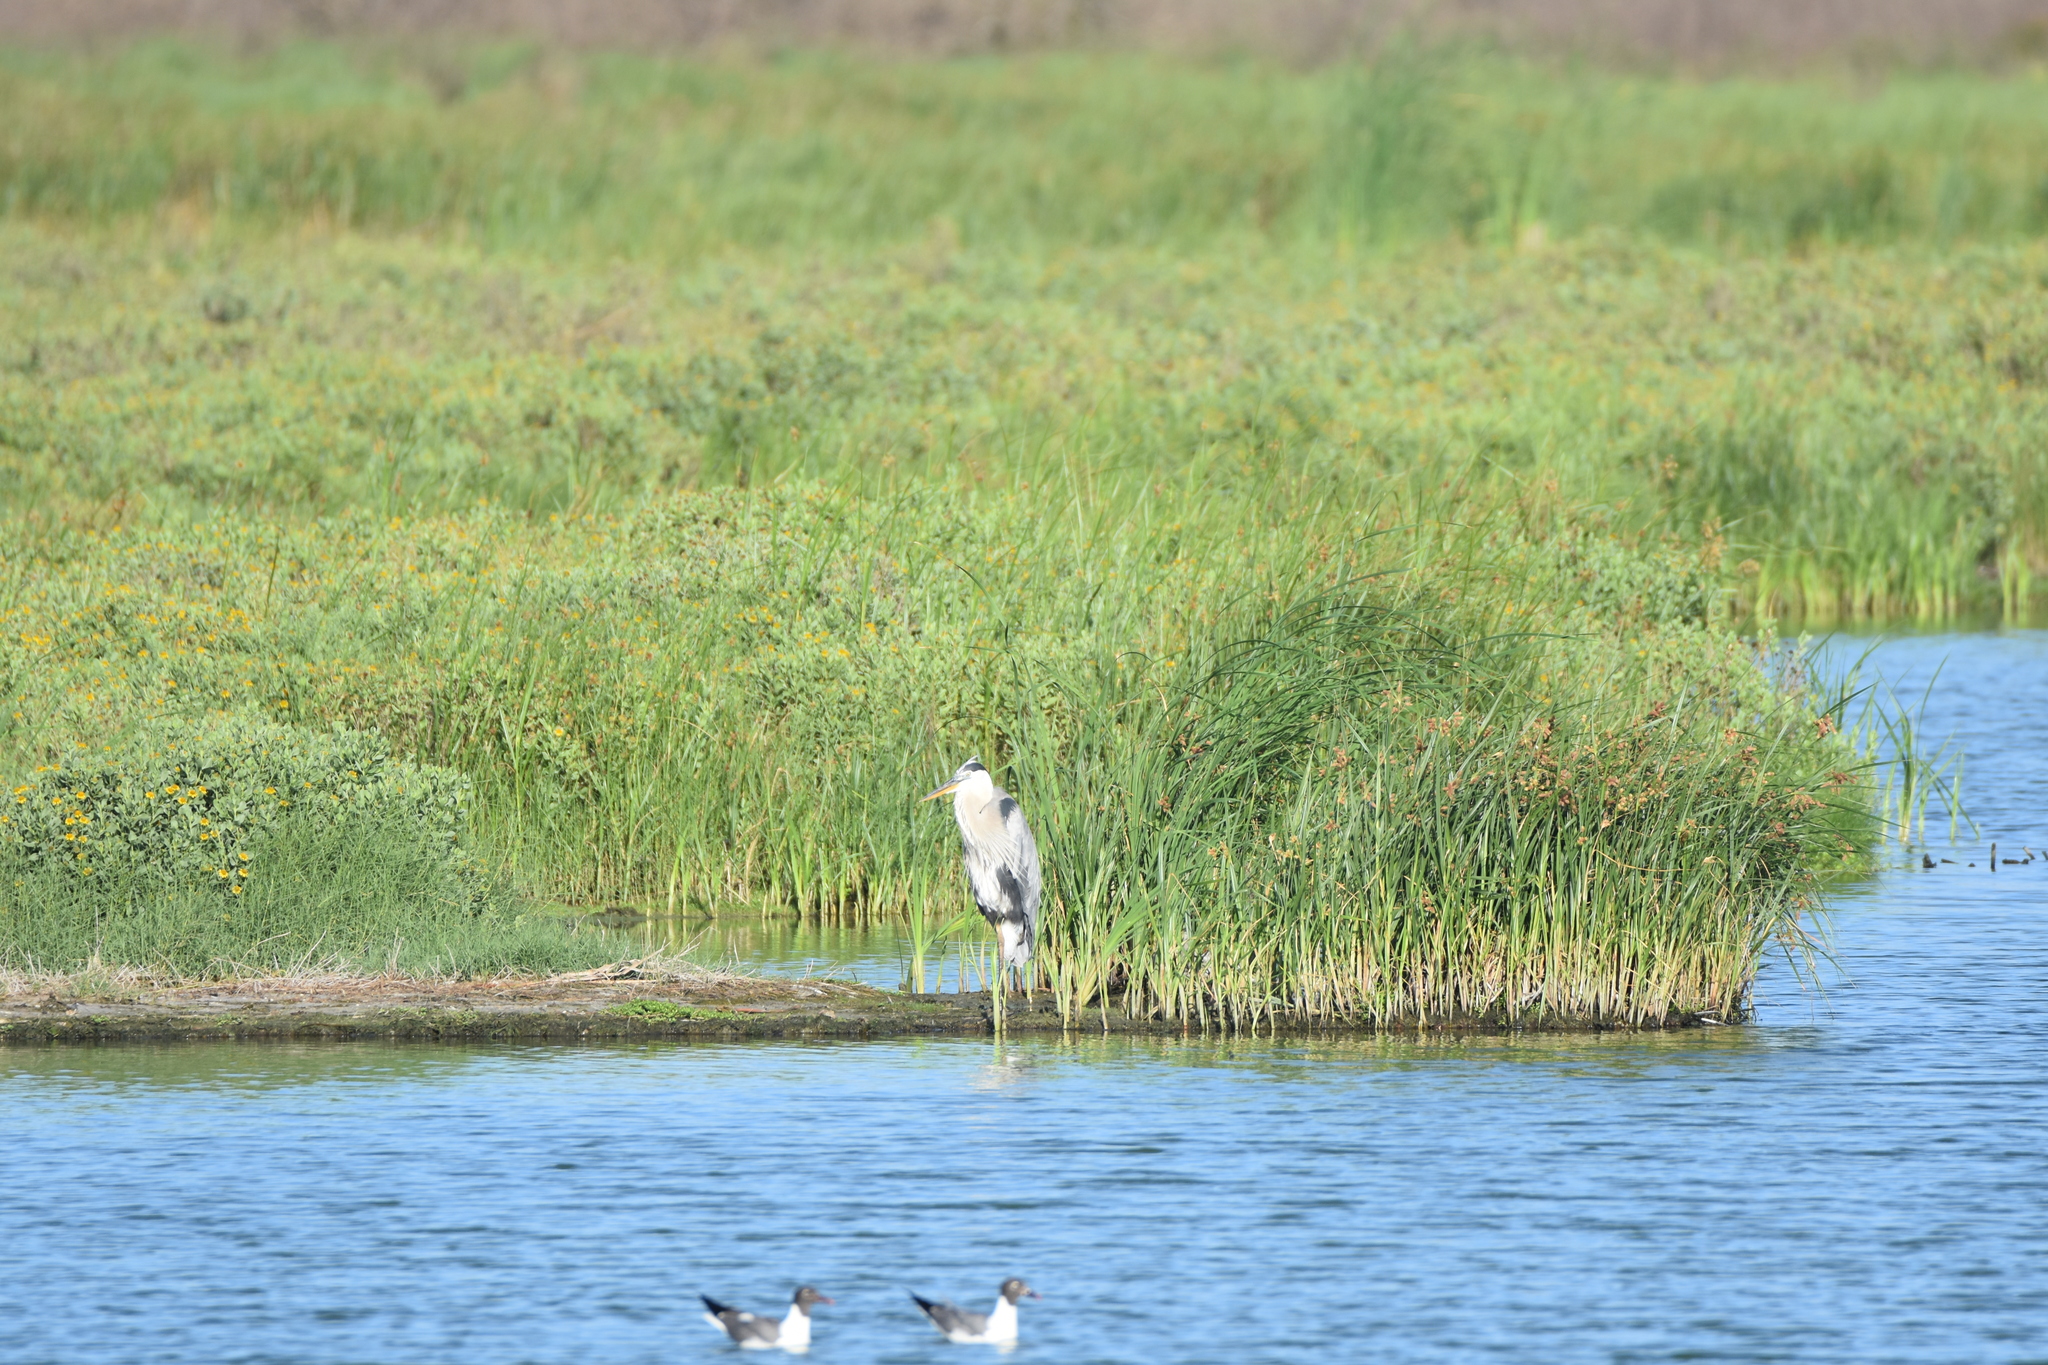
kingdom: Animalia
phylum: Chordata
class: Aves
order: Pelecaniformes
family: Ardeidae
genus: Ardea
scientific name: Ardea herodias
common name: Great blue heron
